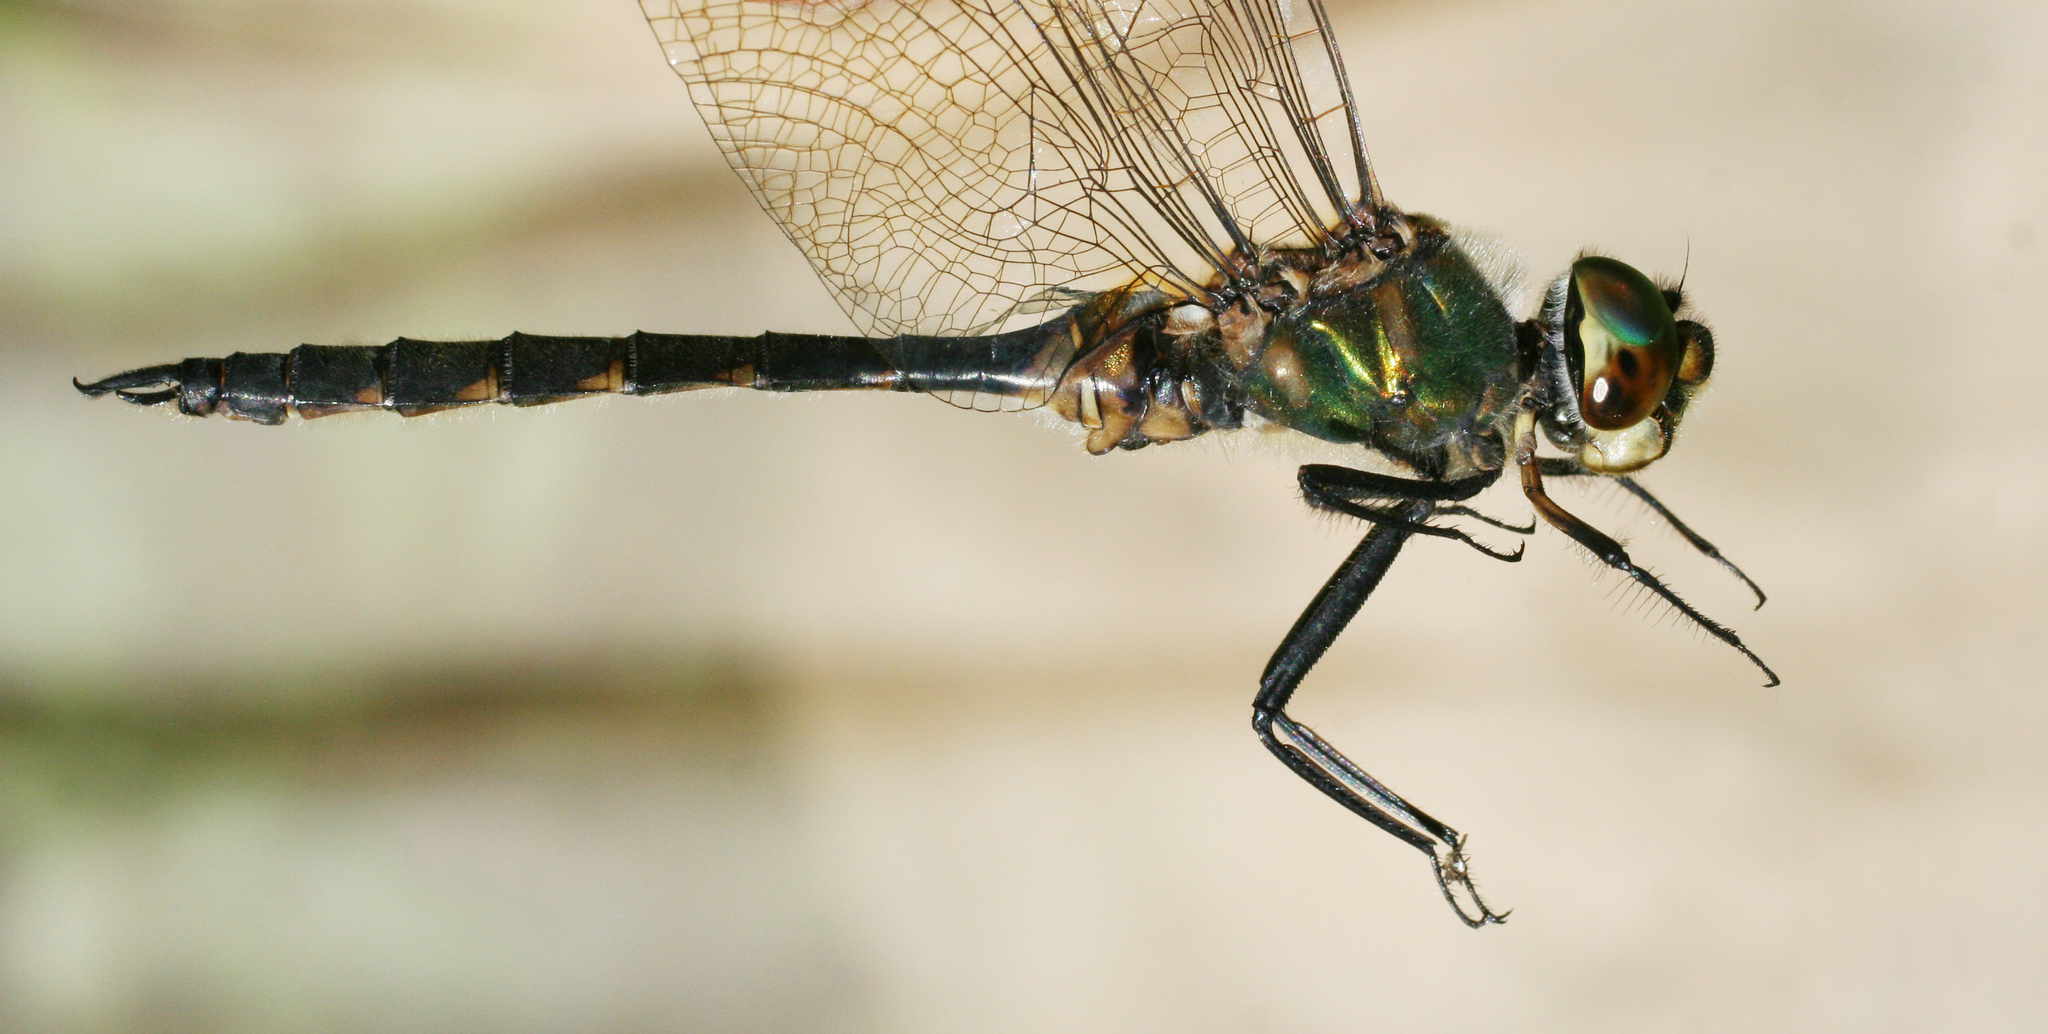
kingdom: Animalia
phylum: Arthropoda
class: Insecta
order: Odonata
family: Corduliidae
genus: Somatochlora
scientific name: Somatochlora flavomaculata
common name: Yellow-spotted emerald
